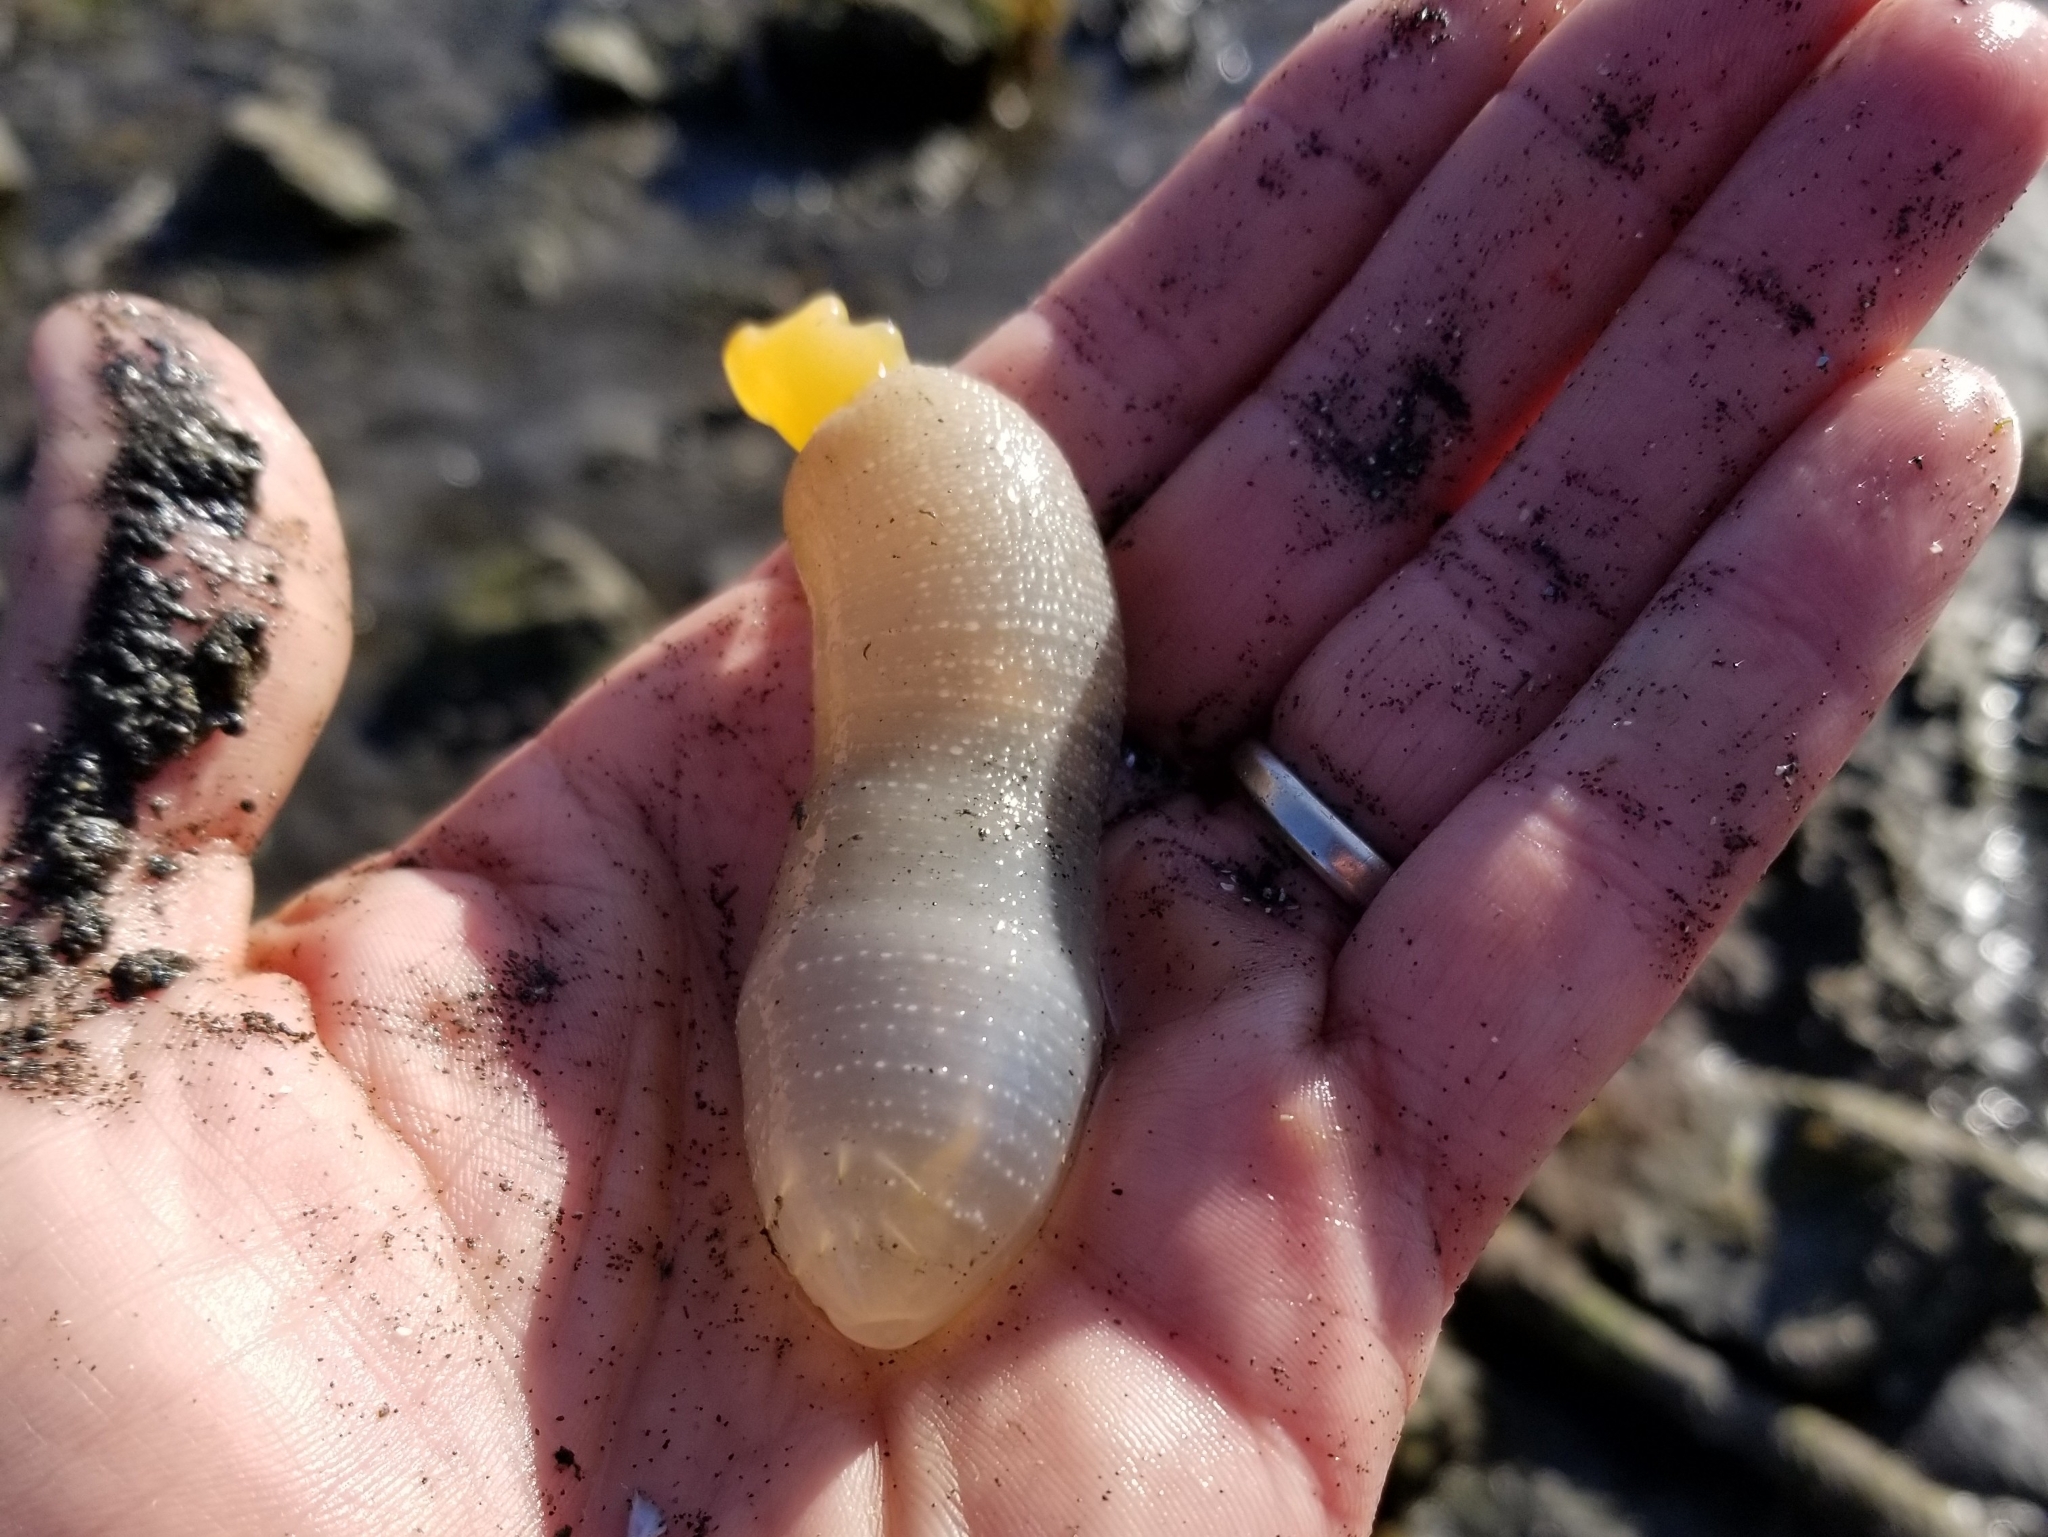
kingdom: Animalia
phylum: Annelida
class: Polychaeta
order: Echiuroidea
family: Echiuridae
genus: Echiurus
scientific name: Echiurus sitchaensis
